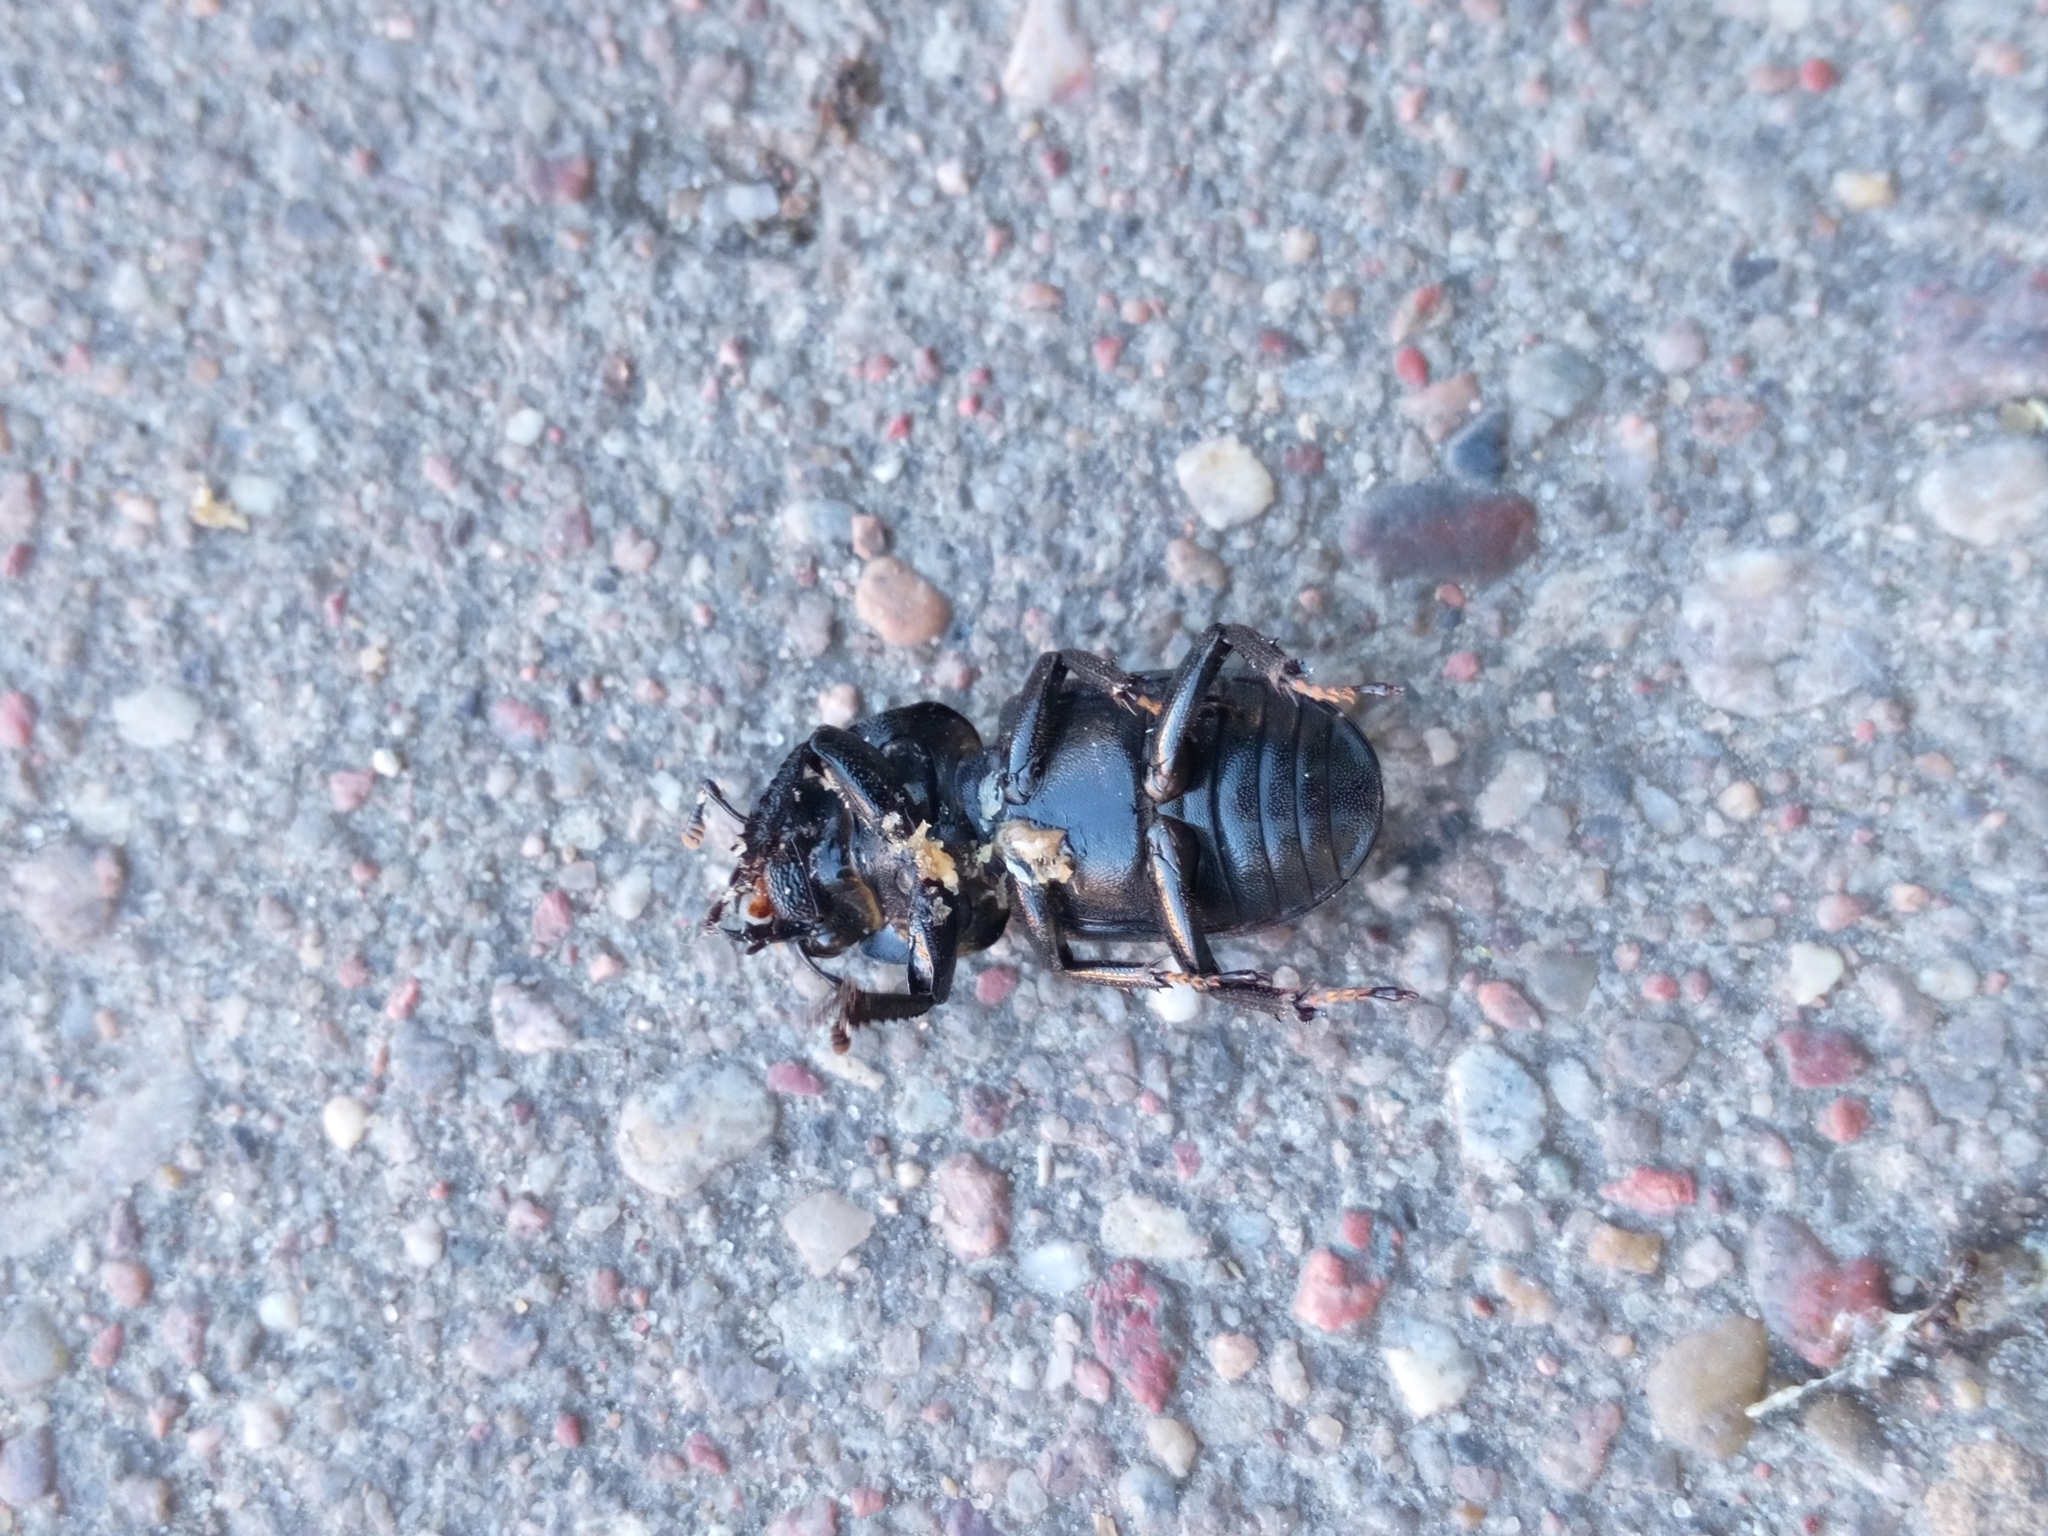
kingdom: Animalia
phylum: Arthropoda
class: Insecta
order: Coleoptera
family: Lucanidae
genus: Dorcus
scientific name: Dorcus parallelipipedus
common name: Lesser stag beetle
